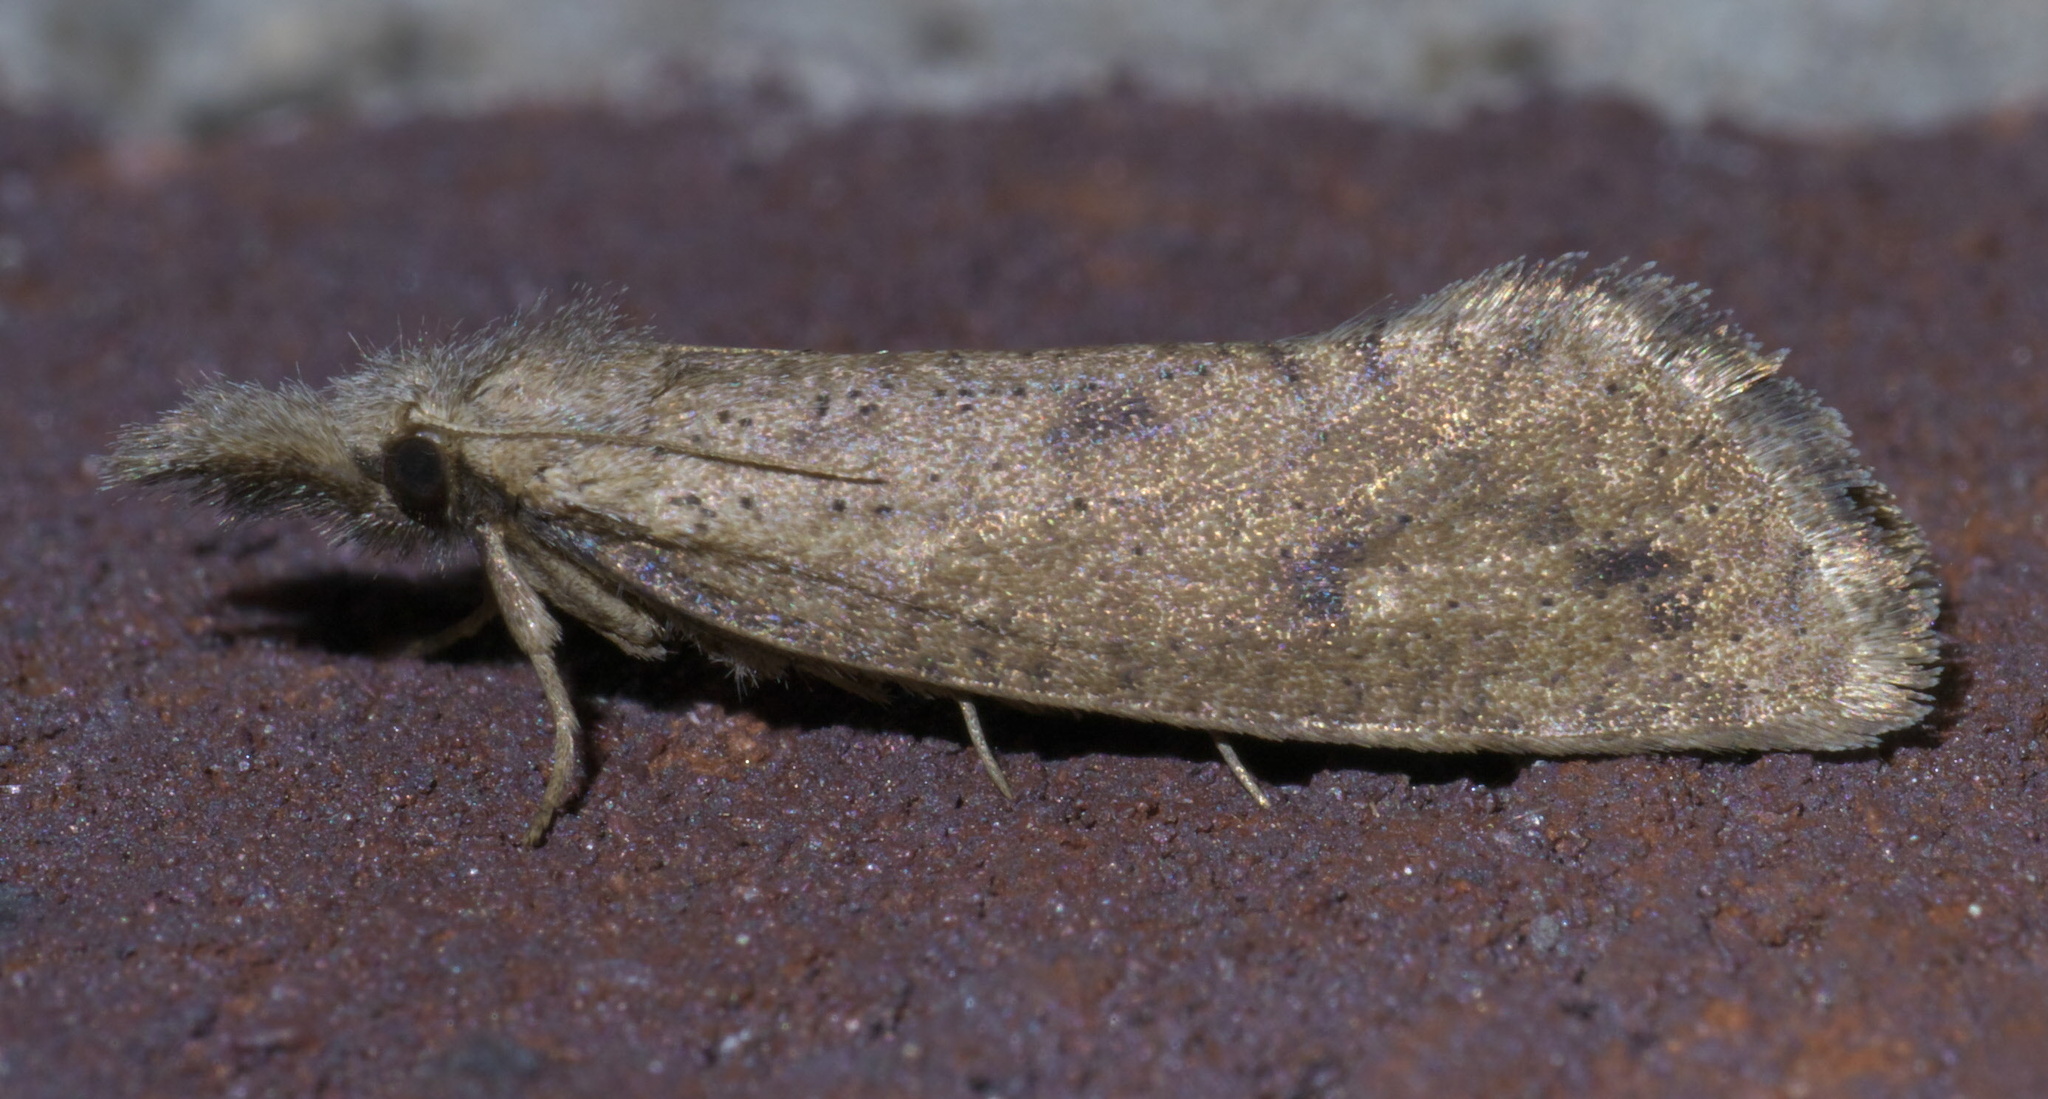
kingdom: Animalia
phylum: Arthropoda
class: Insecta
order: Lepidoptera
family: Tineidae
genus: Acrolophus
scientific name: Acrolophus mortipennella
